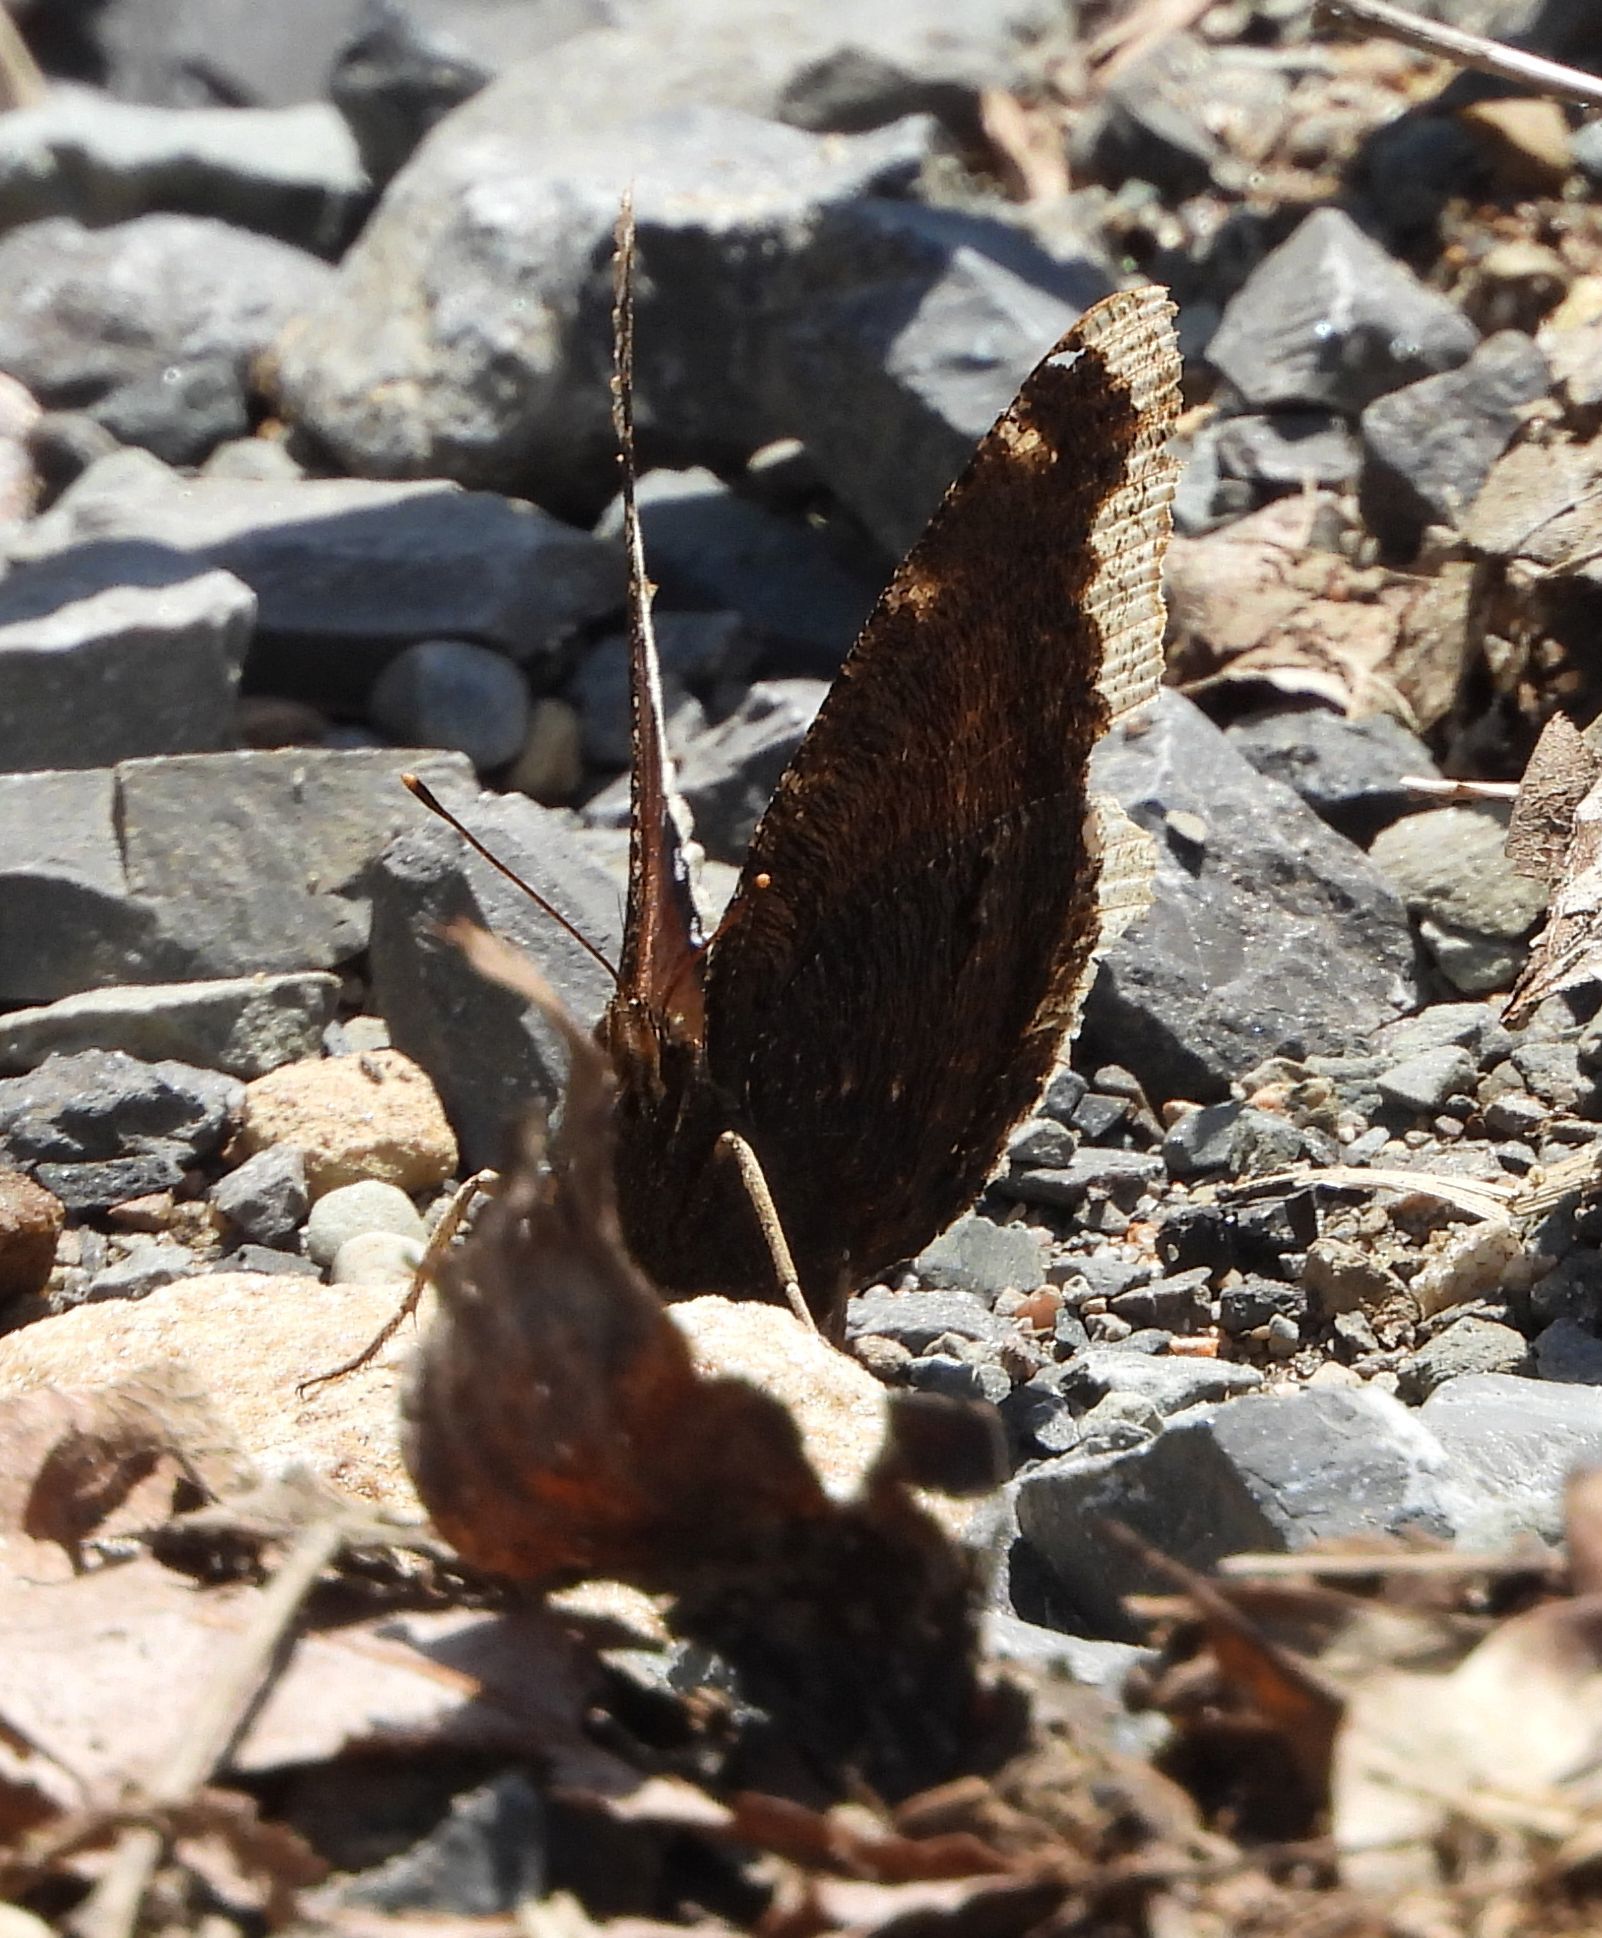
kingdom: Animalia
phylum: Arthropoda
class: Insecta
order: Lepidoptera
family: Nymphalidae
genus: Nymphalis
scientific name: Nymphalis antiopa
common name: Camberwell beauty
